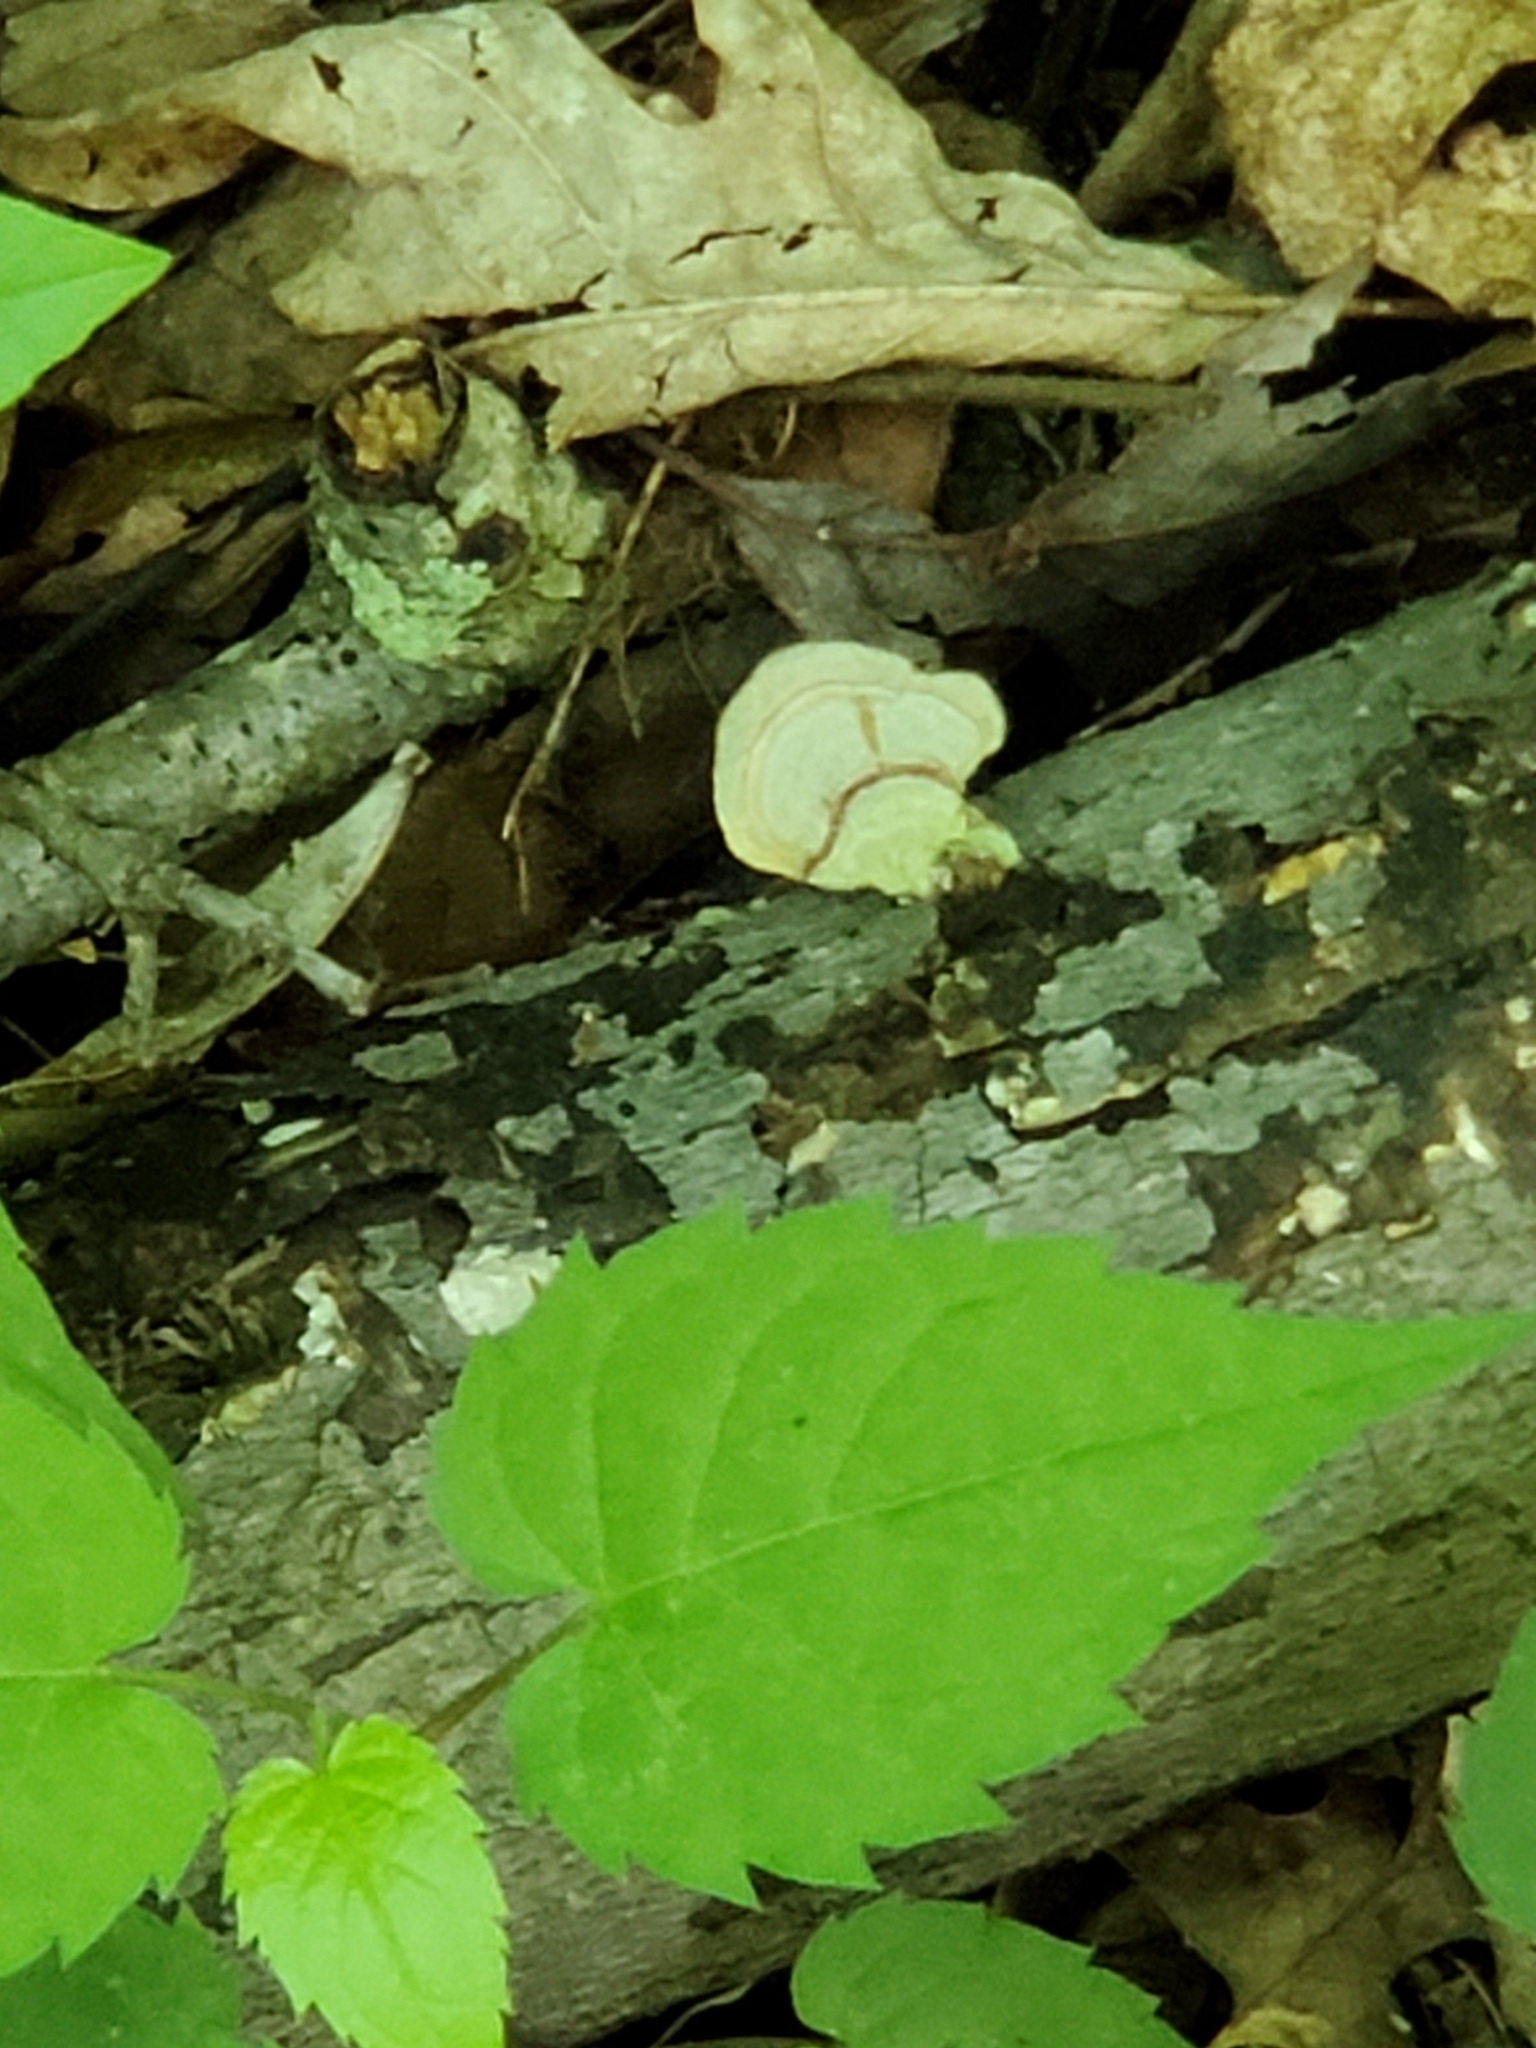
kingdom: Fungi
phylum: Basidiomycota
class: Agaricomycetes
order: Russulales
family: Stereaceae
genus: Stereum
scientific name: Stereum lobatum
